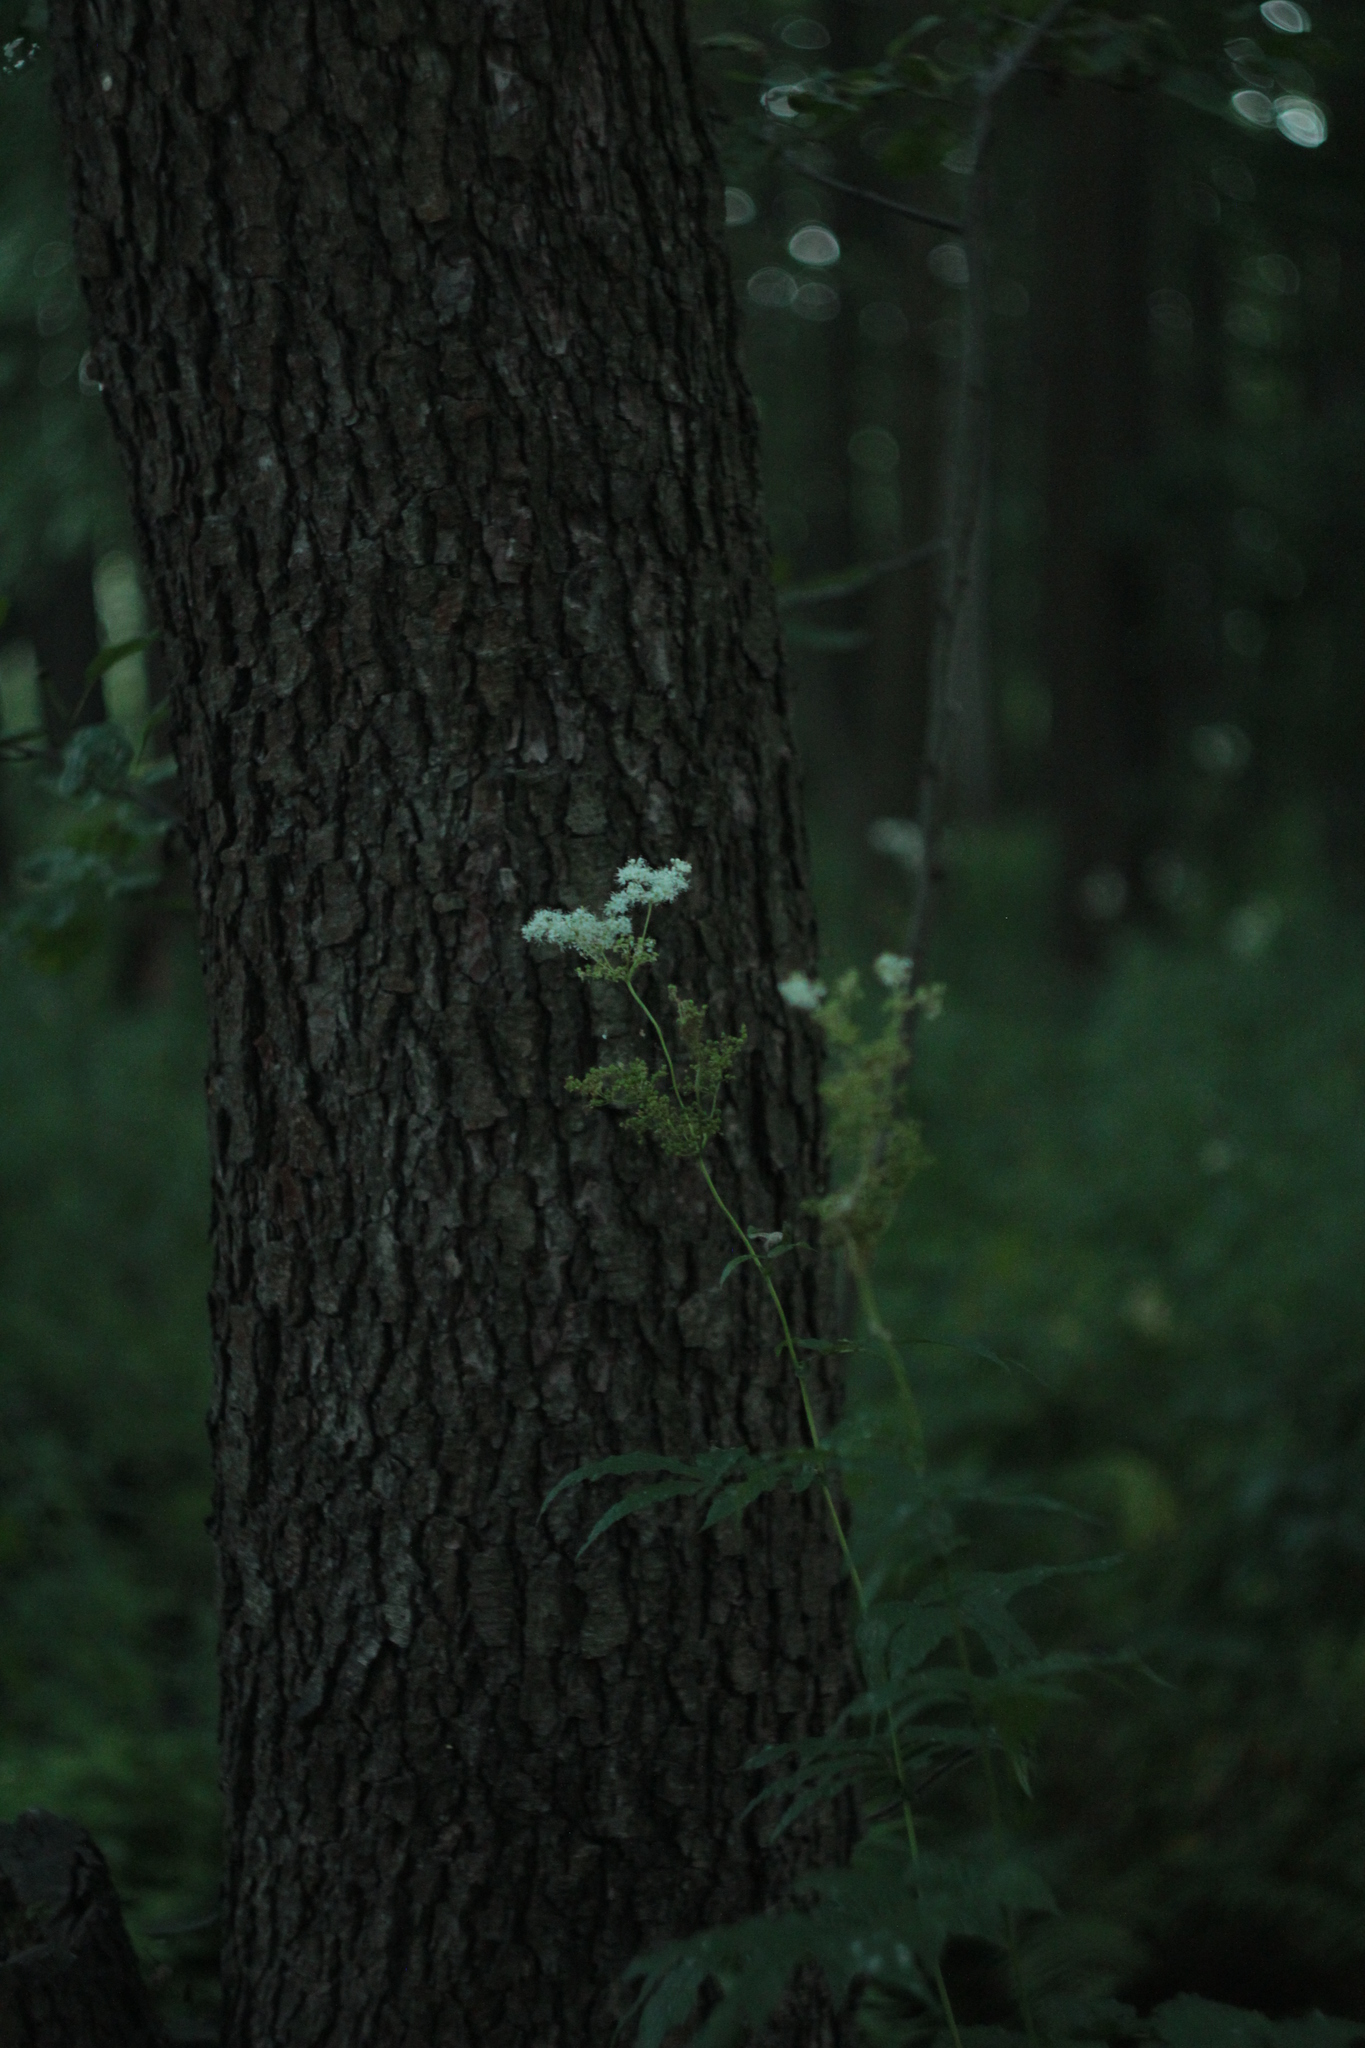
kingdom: Plantae
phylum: Tracheophyta
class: Magnoliopsida
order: Rosales
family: Rosaceae
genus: Filipendula
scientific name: Filipendula ulmaria
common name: Meadowsweet
